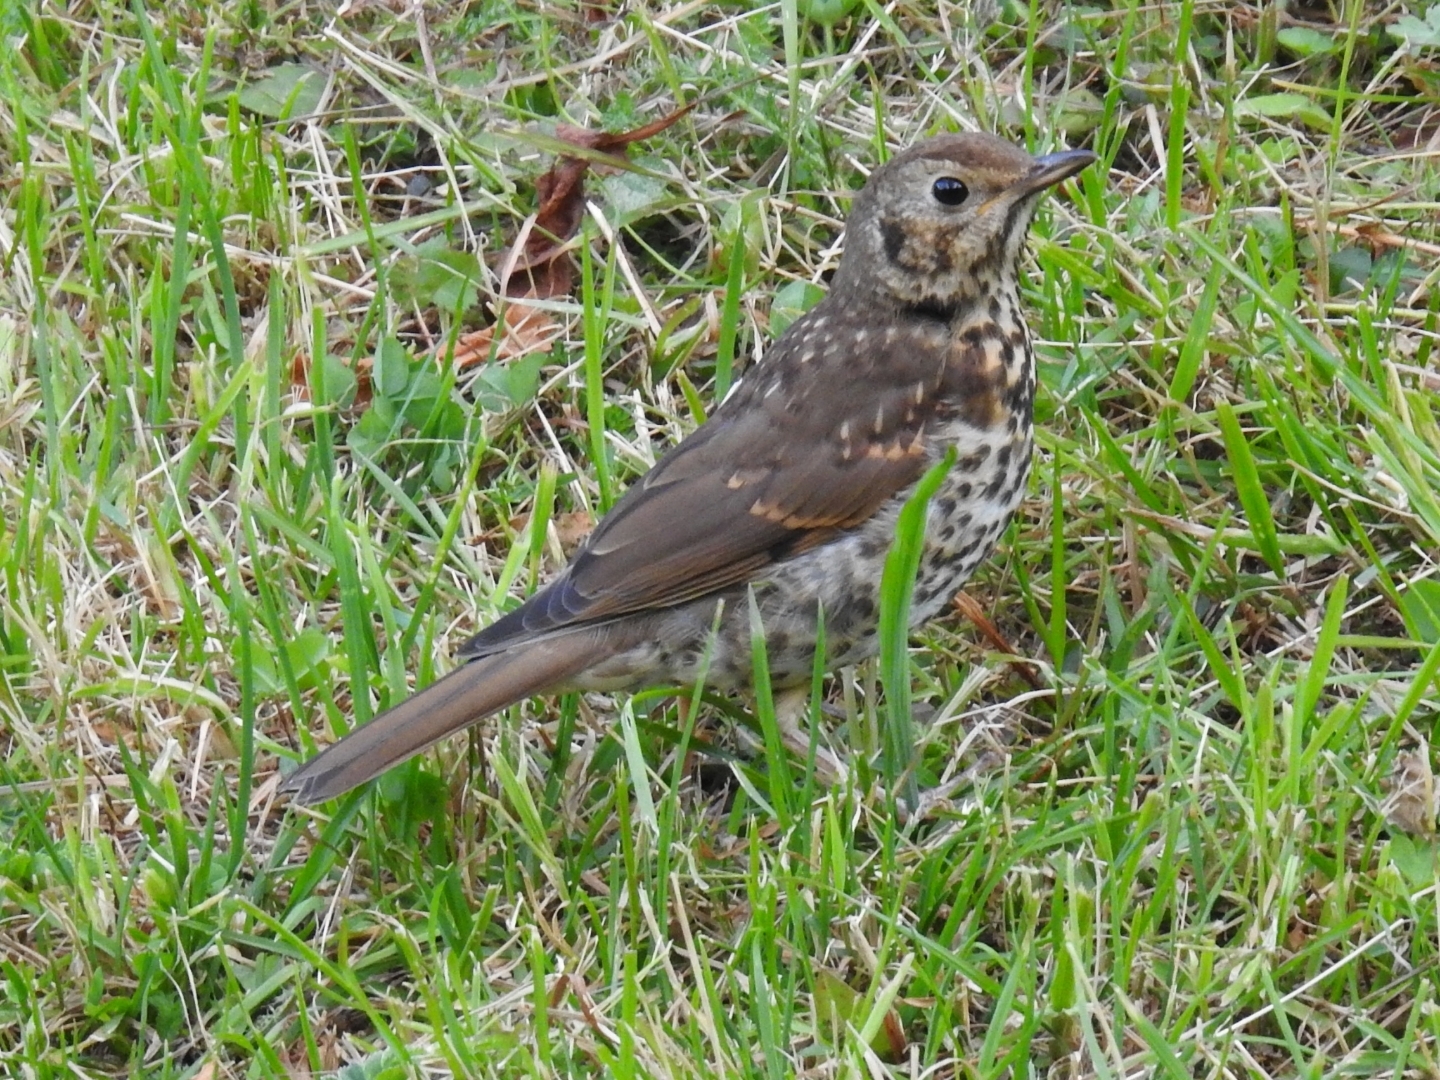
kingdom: Animalia
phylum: Chordata
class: Aves
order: Passeriformes
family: Turdidae
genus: Turdus
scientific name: Turdus philomelos
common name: Song thrush
